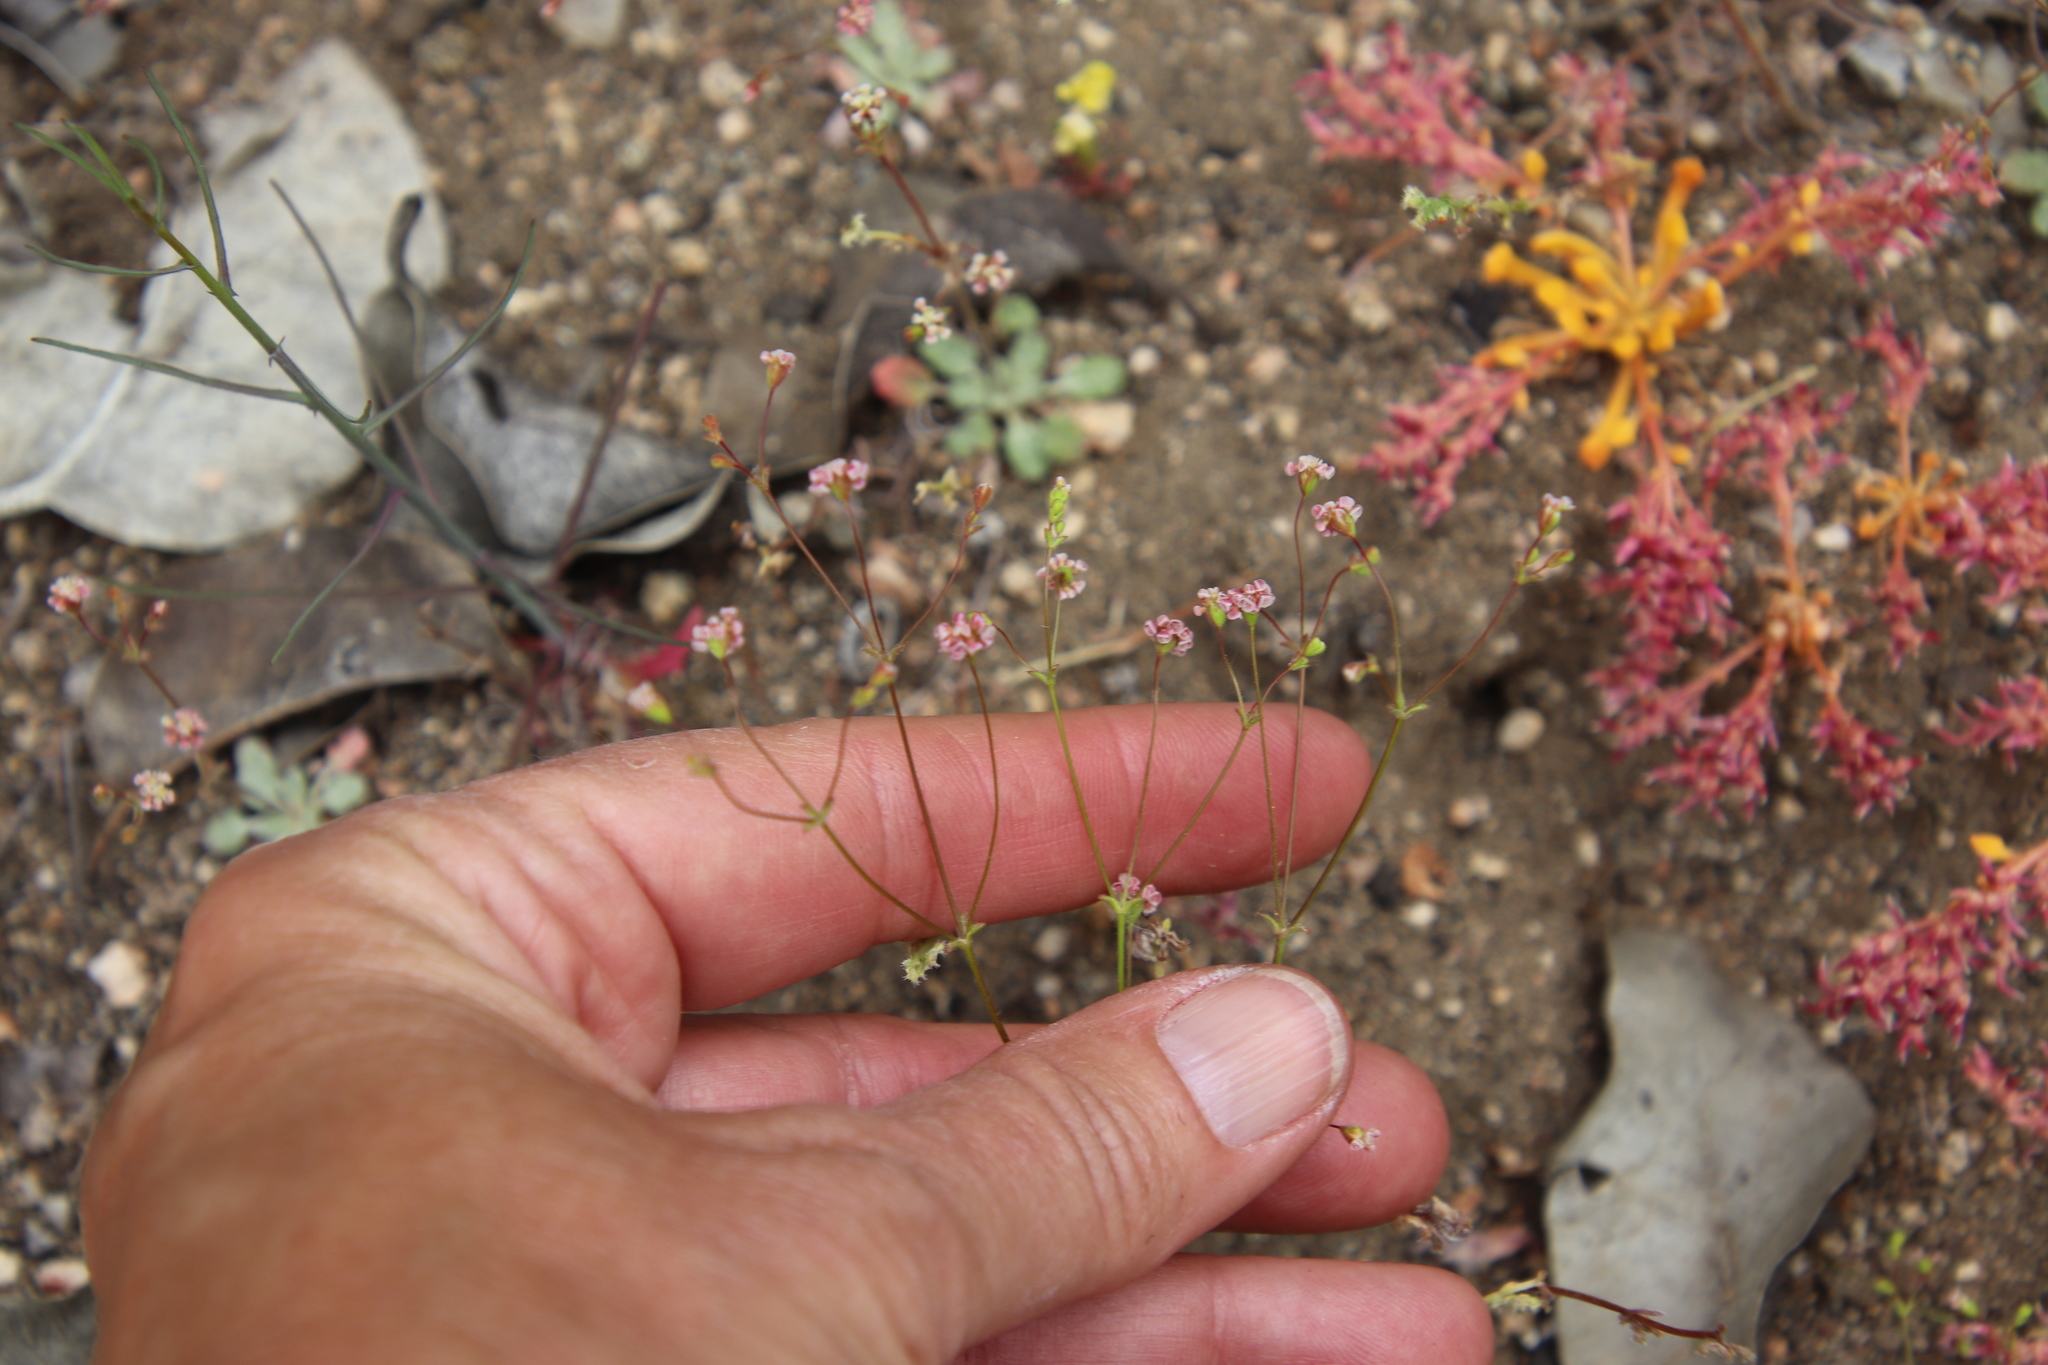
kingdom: Plantae
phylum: Tracheophyta
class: Magnoliopsida
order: Caryophyllales
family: Polygonaceae
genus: Eriogonum
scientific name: Eriogonum thurberi
